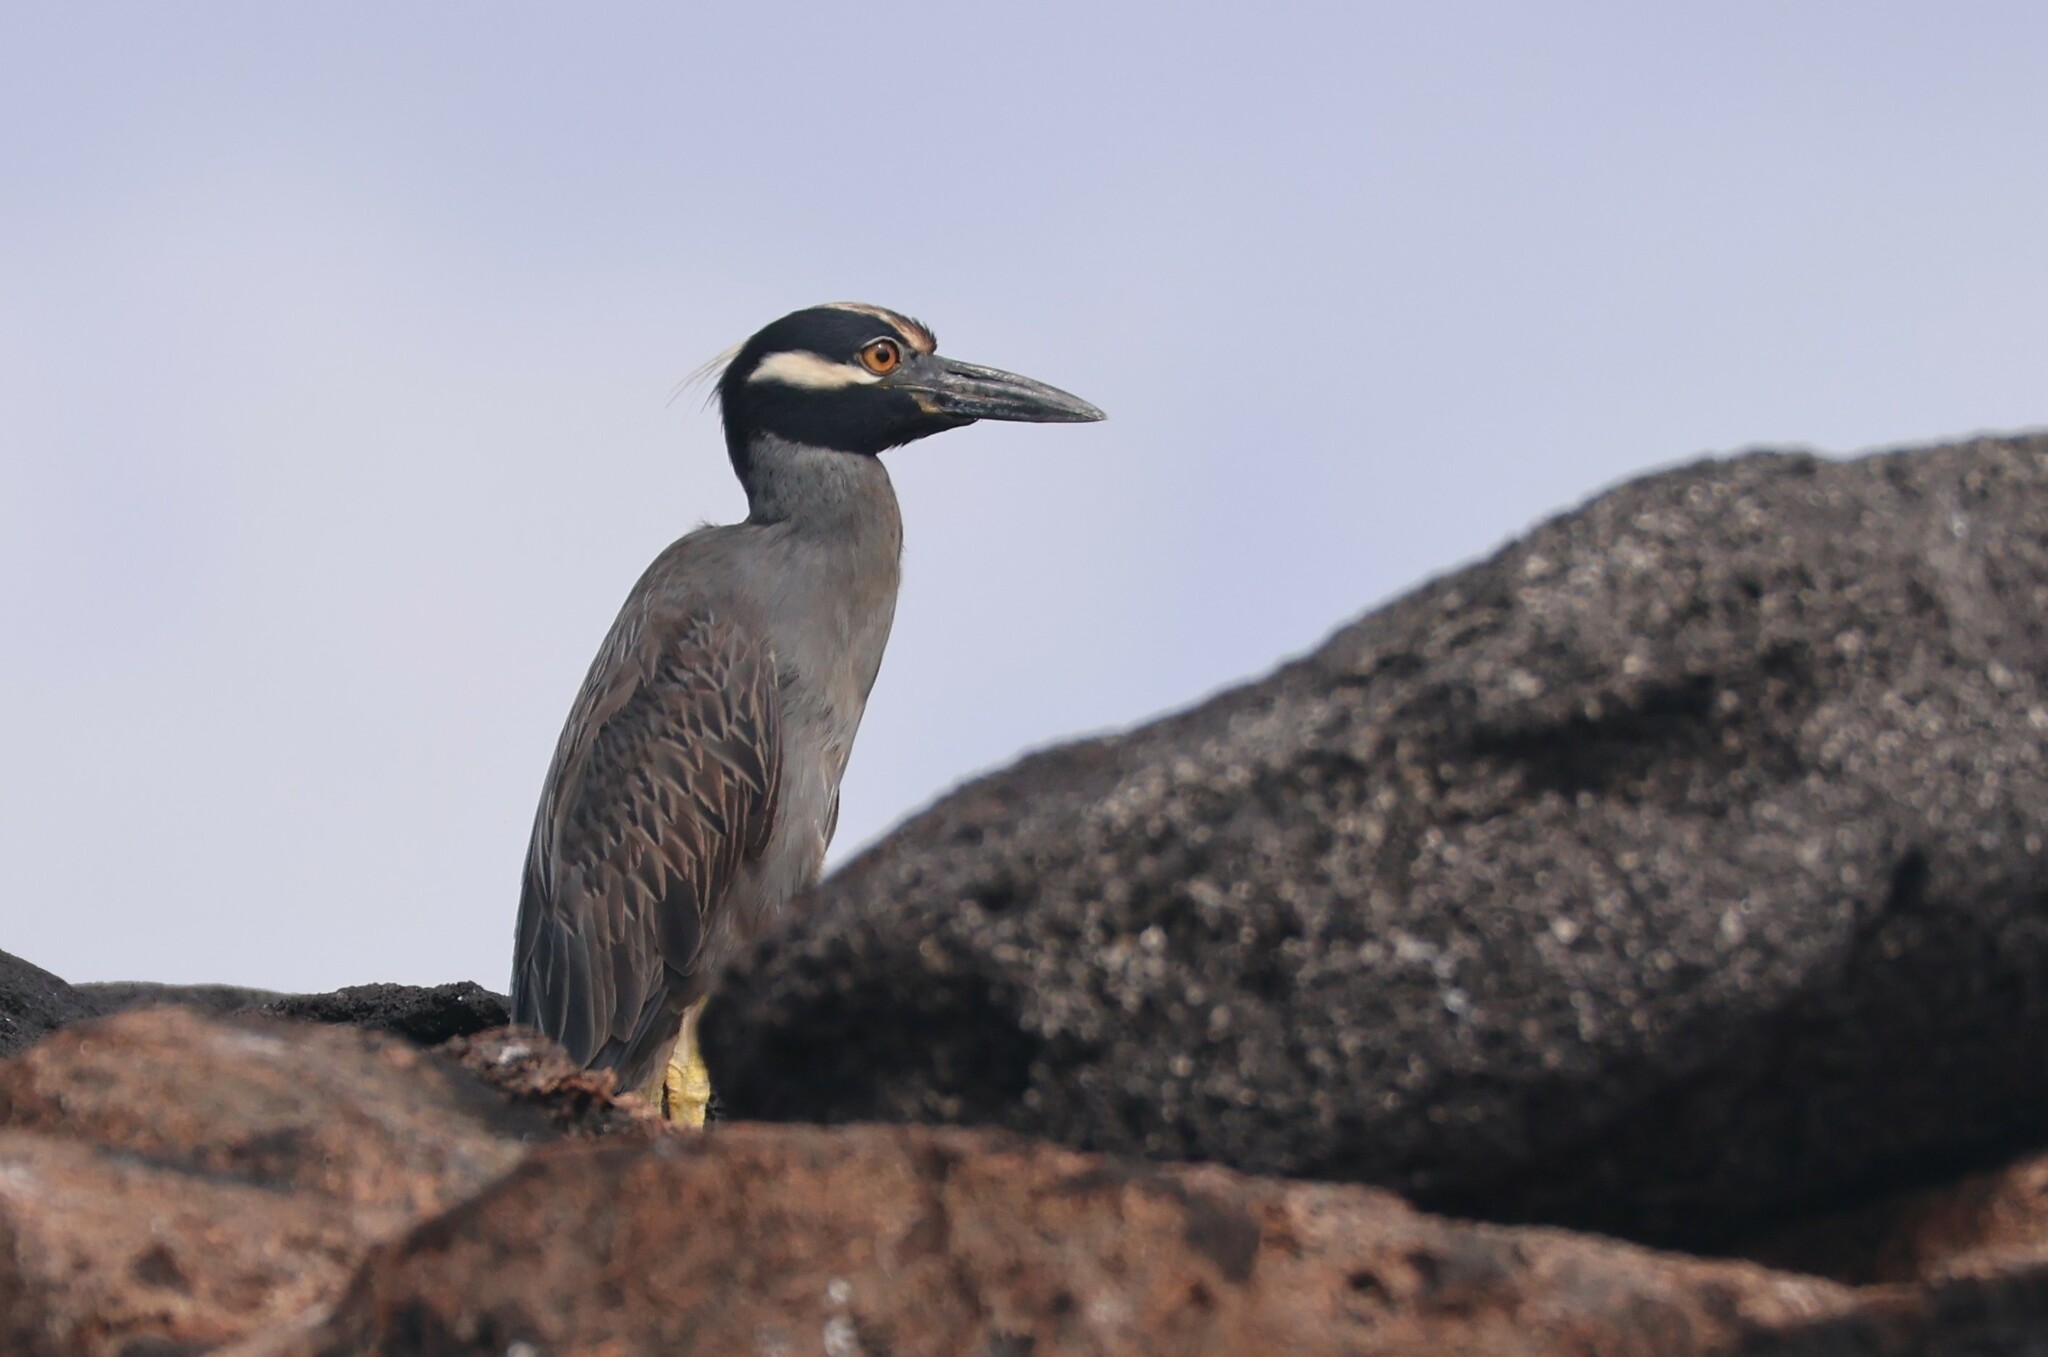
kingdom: Animalia
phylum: Chordata
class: Aves
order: Pelecaniformes
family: Ardeidae
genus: Nyctanassa
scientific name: Nyctanassa violacea
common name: Yellow-crowned night heron
